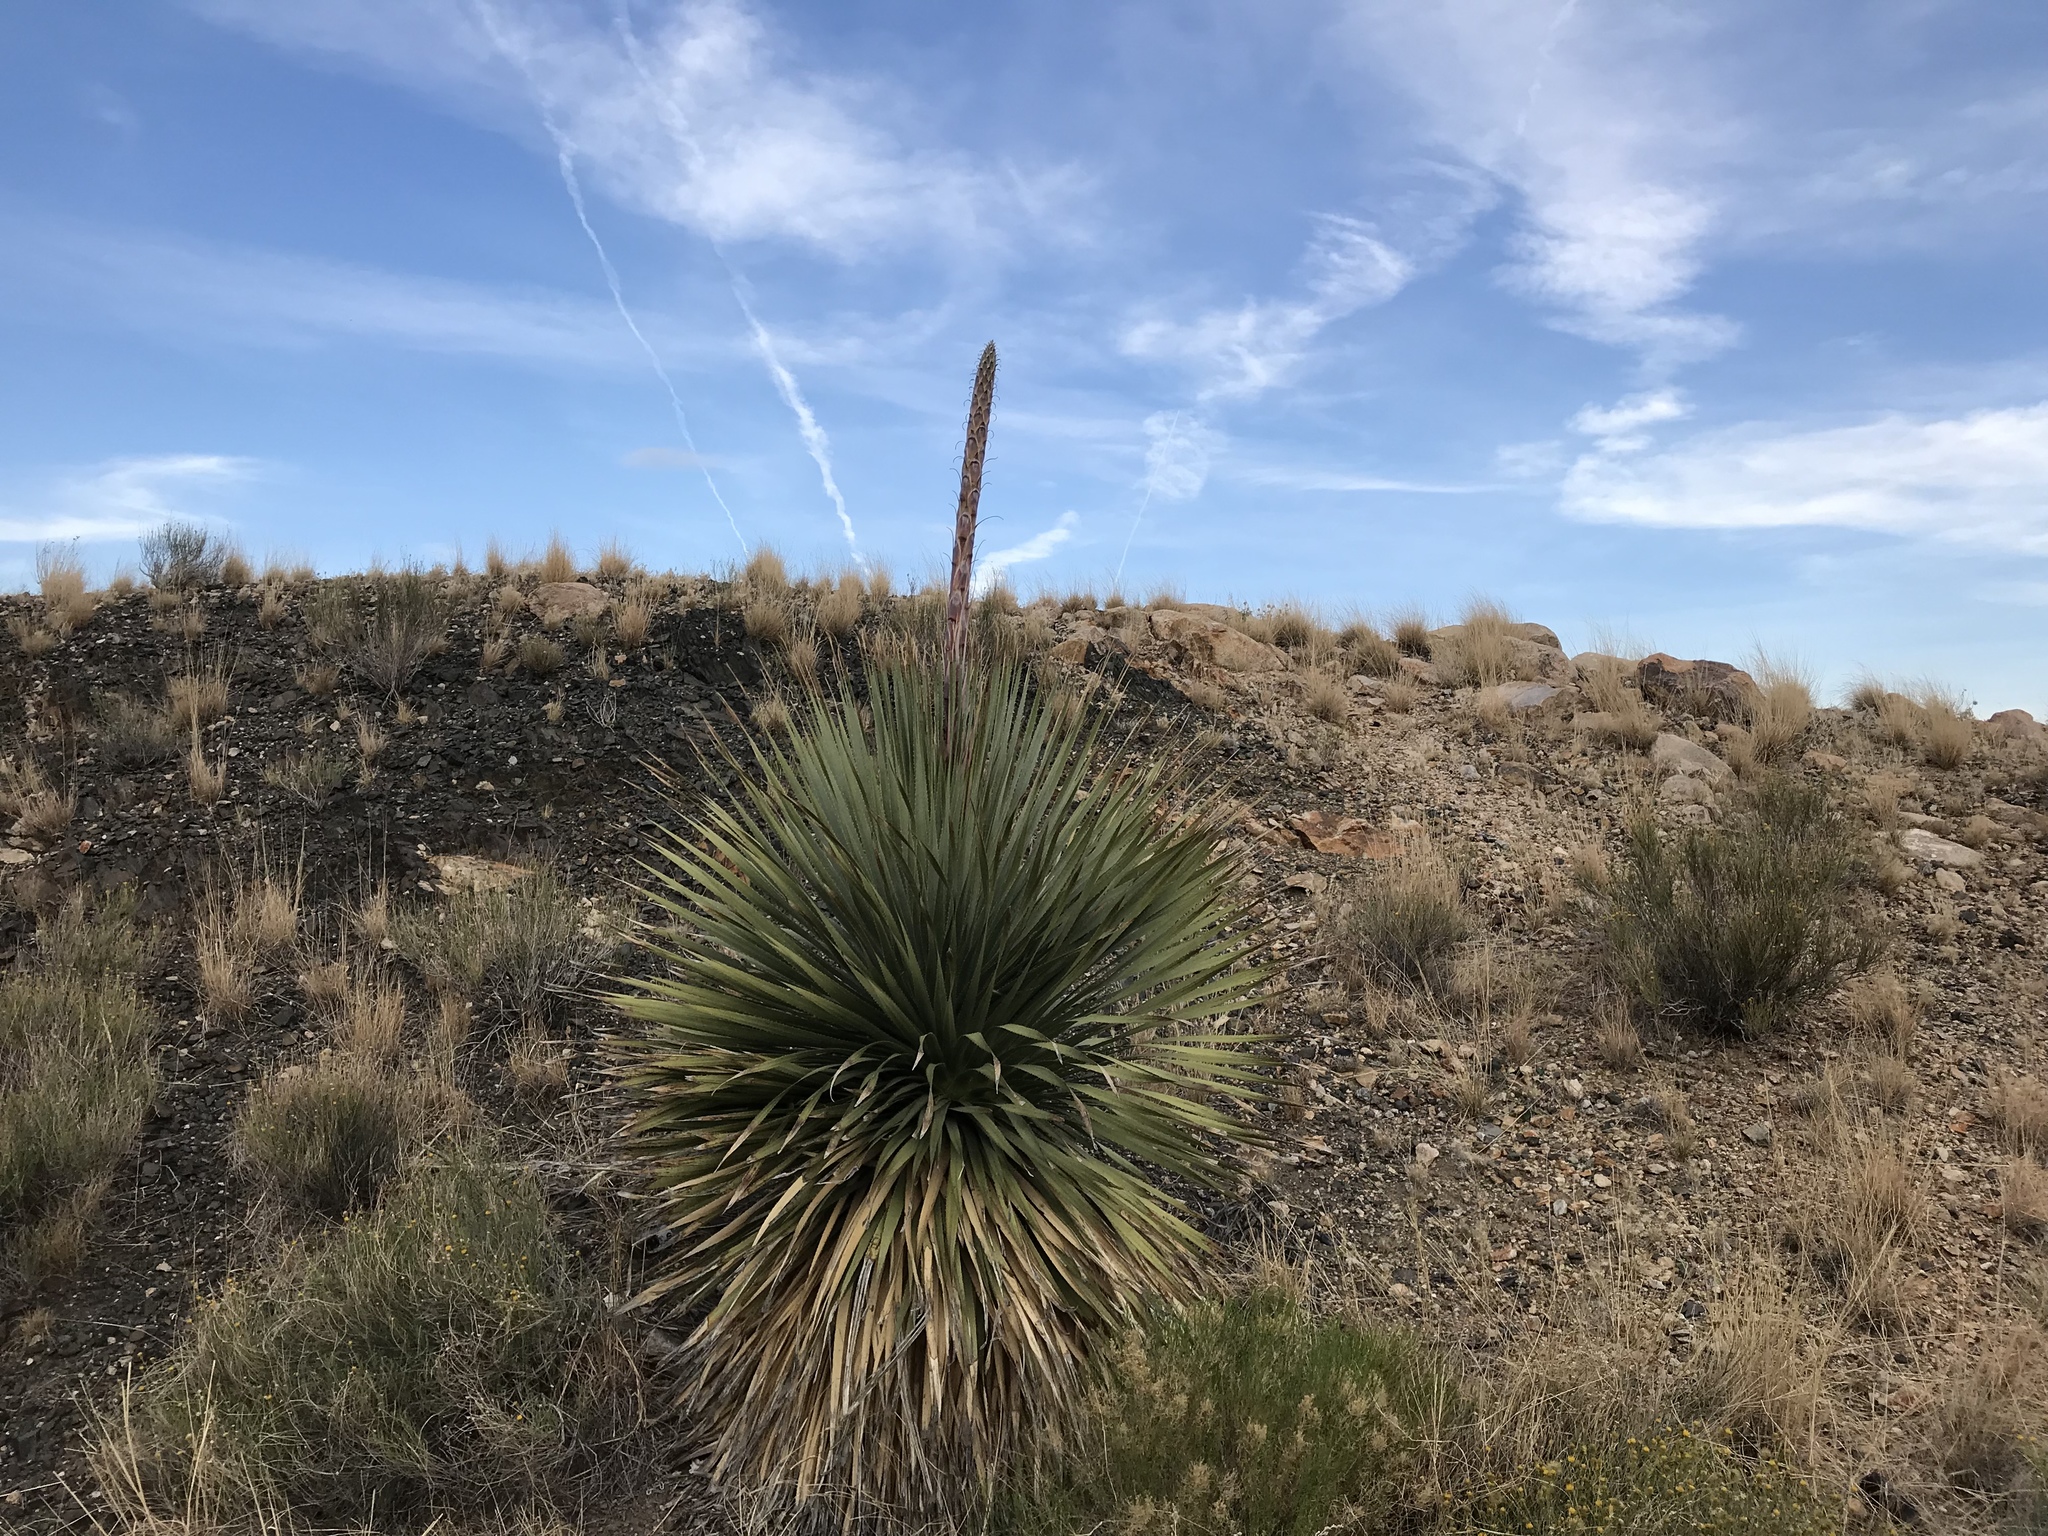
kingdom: Plantae
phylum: Tracheophyta
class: Liliopsida
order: Asparagales
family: Asparagaceae
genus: Dasylirion
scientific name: Dasylirion wheeleri
